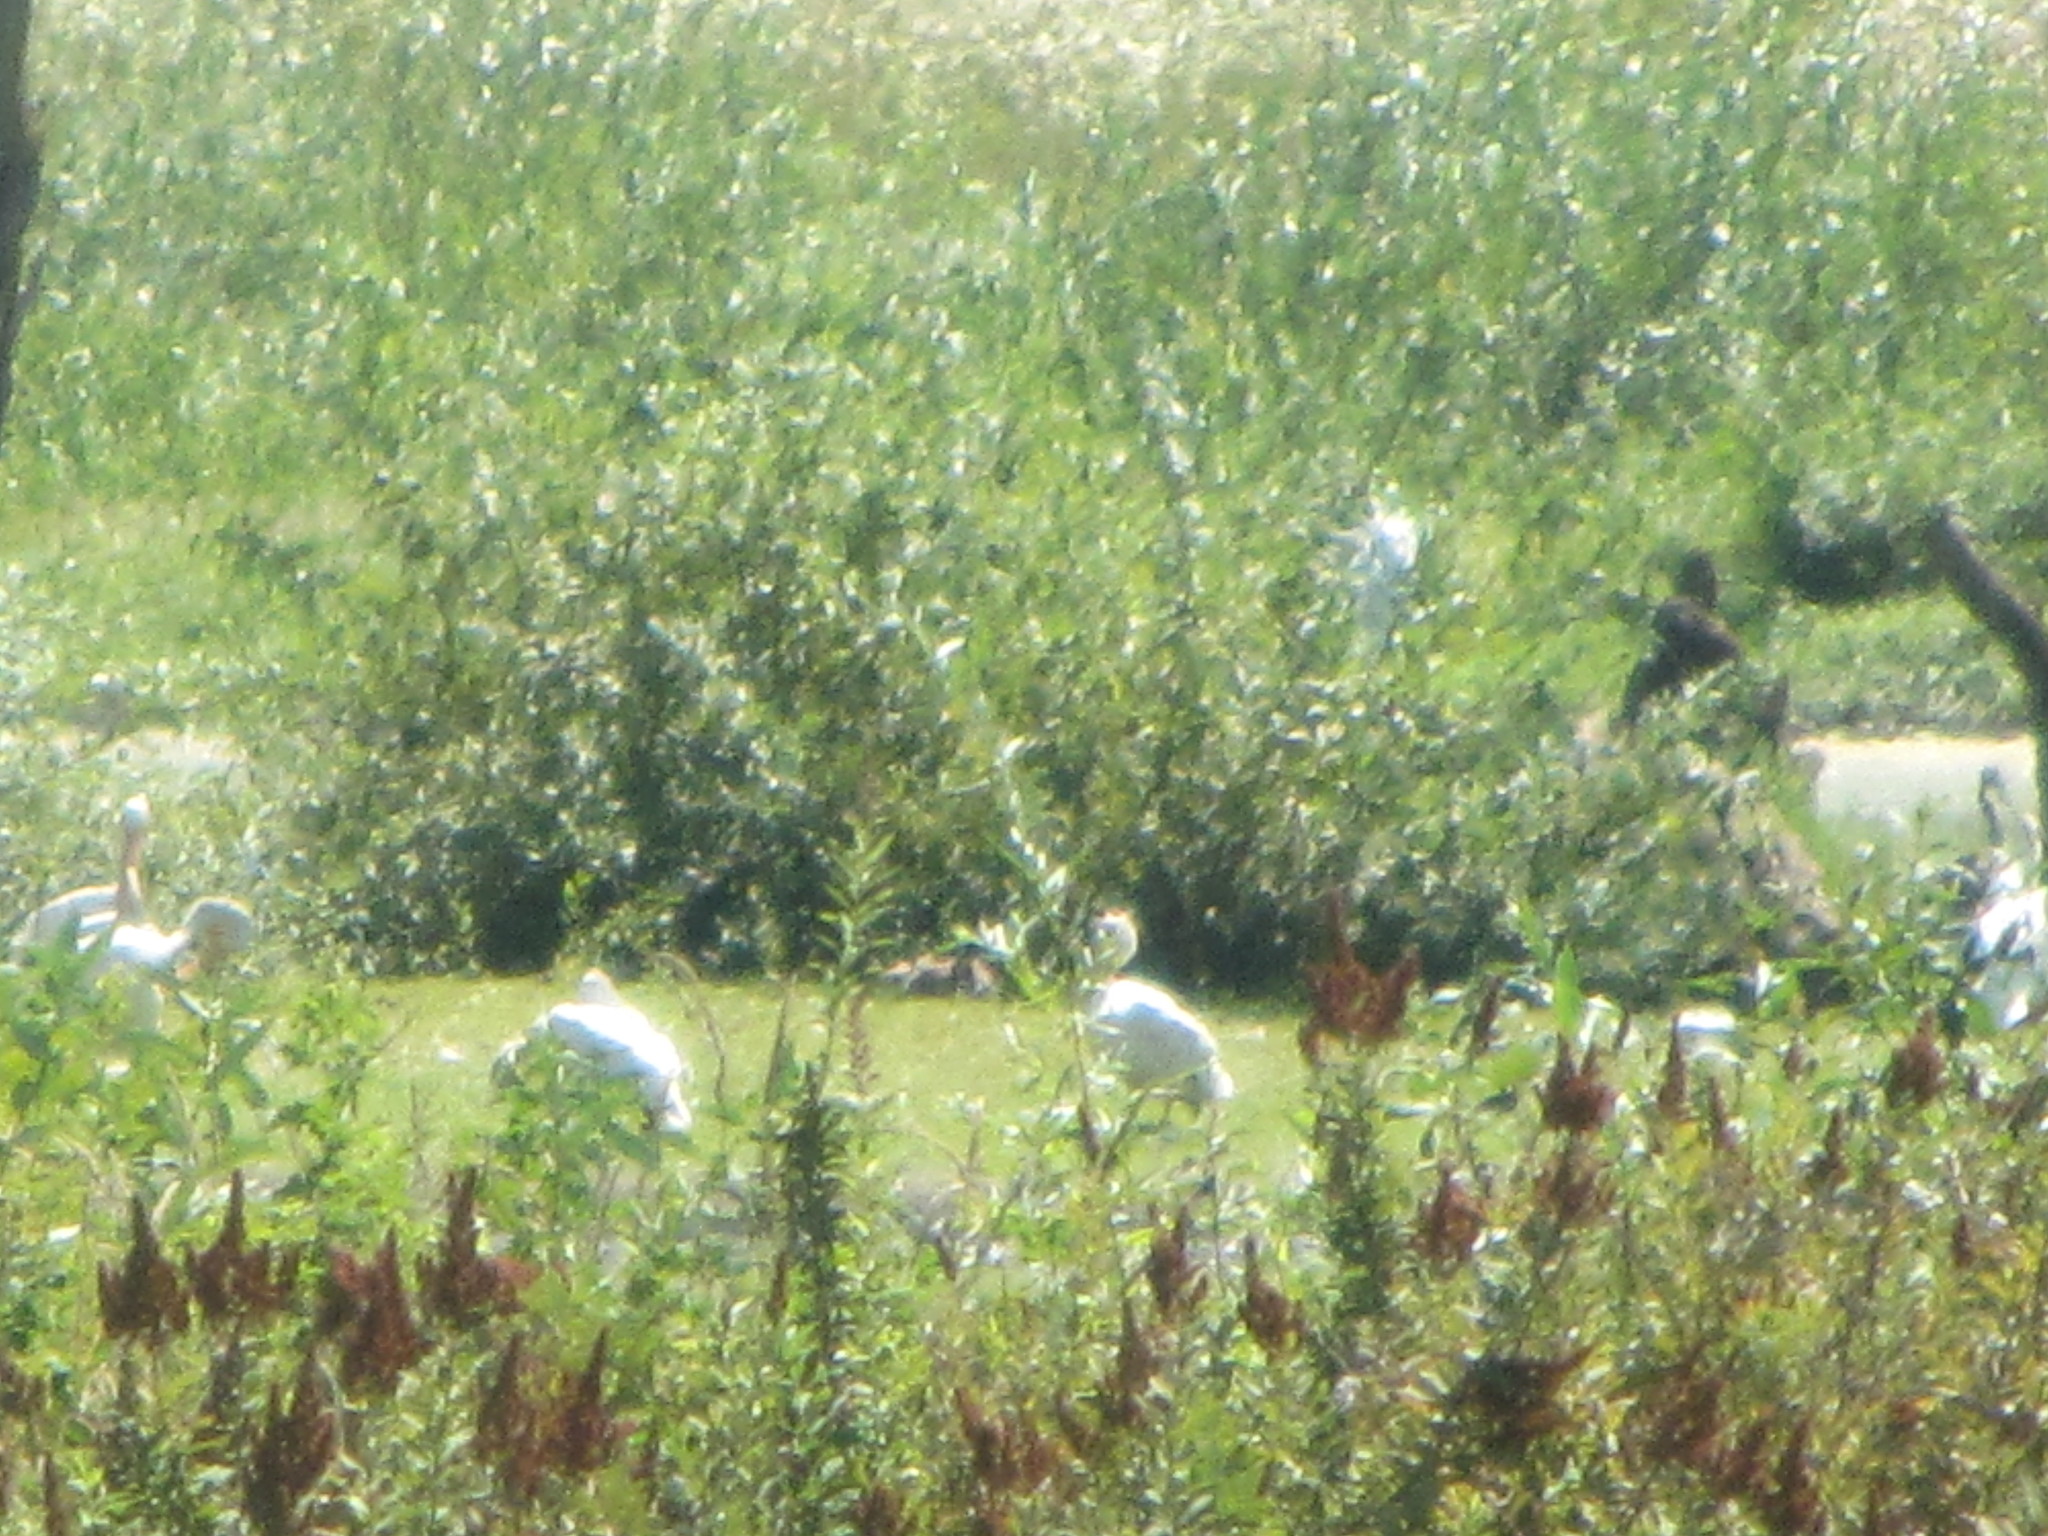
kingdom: Animalia
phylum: Chordata
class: Aves
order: Pelecaniformes
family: Pelecanidae
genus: Pelecanus
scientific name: Pelecanus erythrorhynchos
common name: American white pelican
